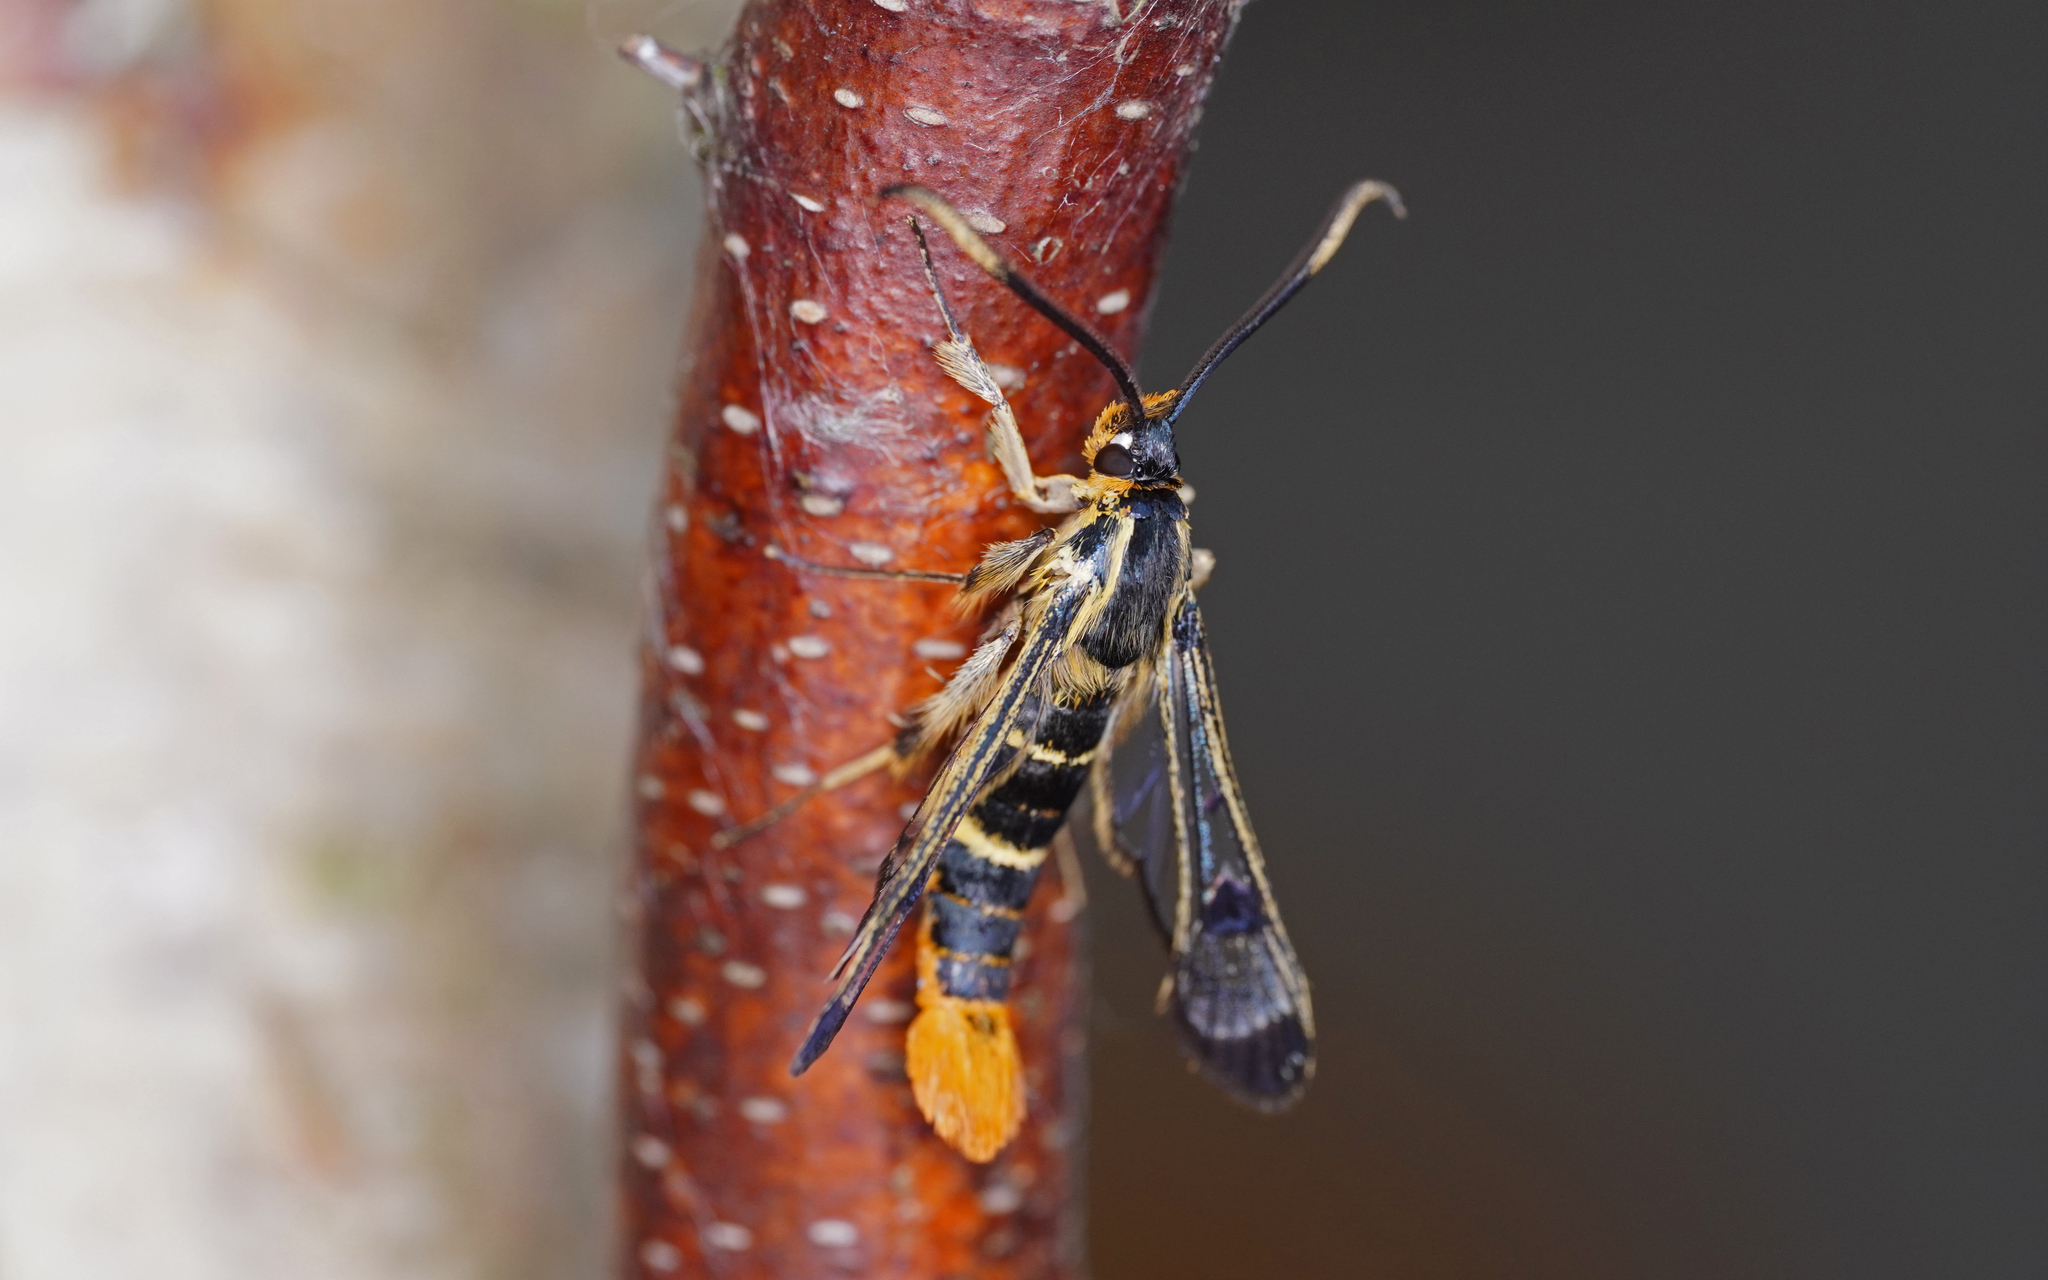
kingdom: Animalia
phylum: Arthropoda
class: Insecta
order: Lepidoptera
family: Sesiidae
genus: Synanthedon
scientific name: Synanthedon scoliaeformis
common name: Welsh clearwing
